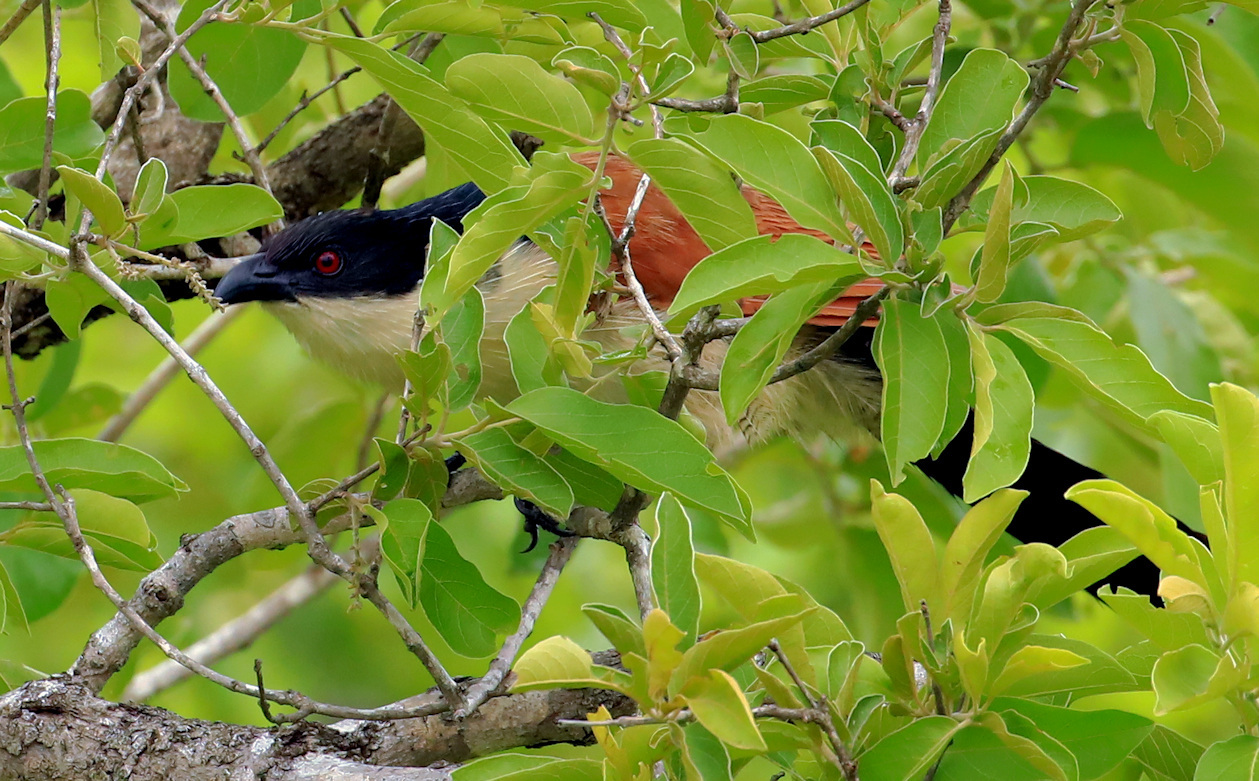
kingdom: Animalia
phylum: Chordata
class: Aves
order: Cuculiformes
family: Cuculidae
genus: Centropus
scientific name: Centropus superciliosus
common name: White-browed coucal
